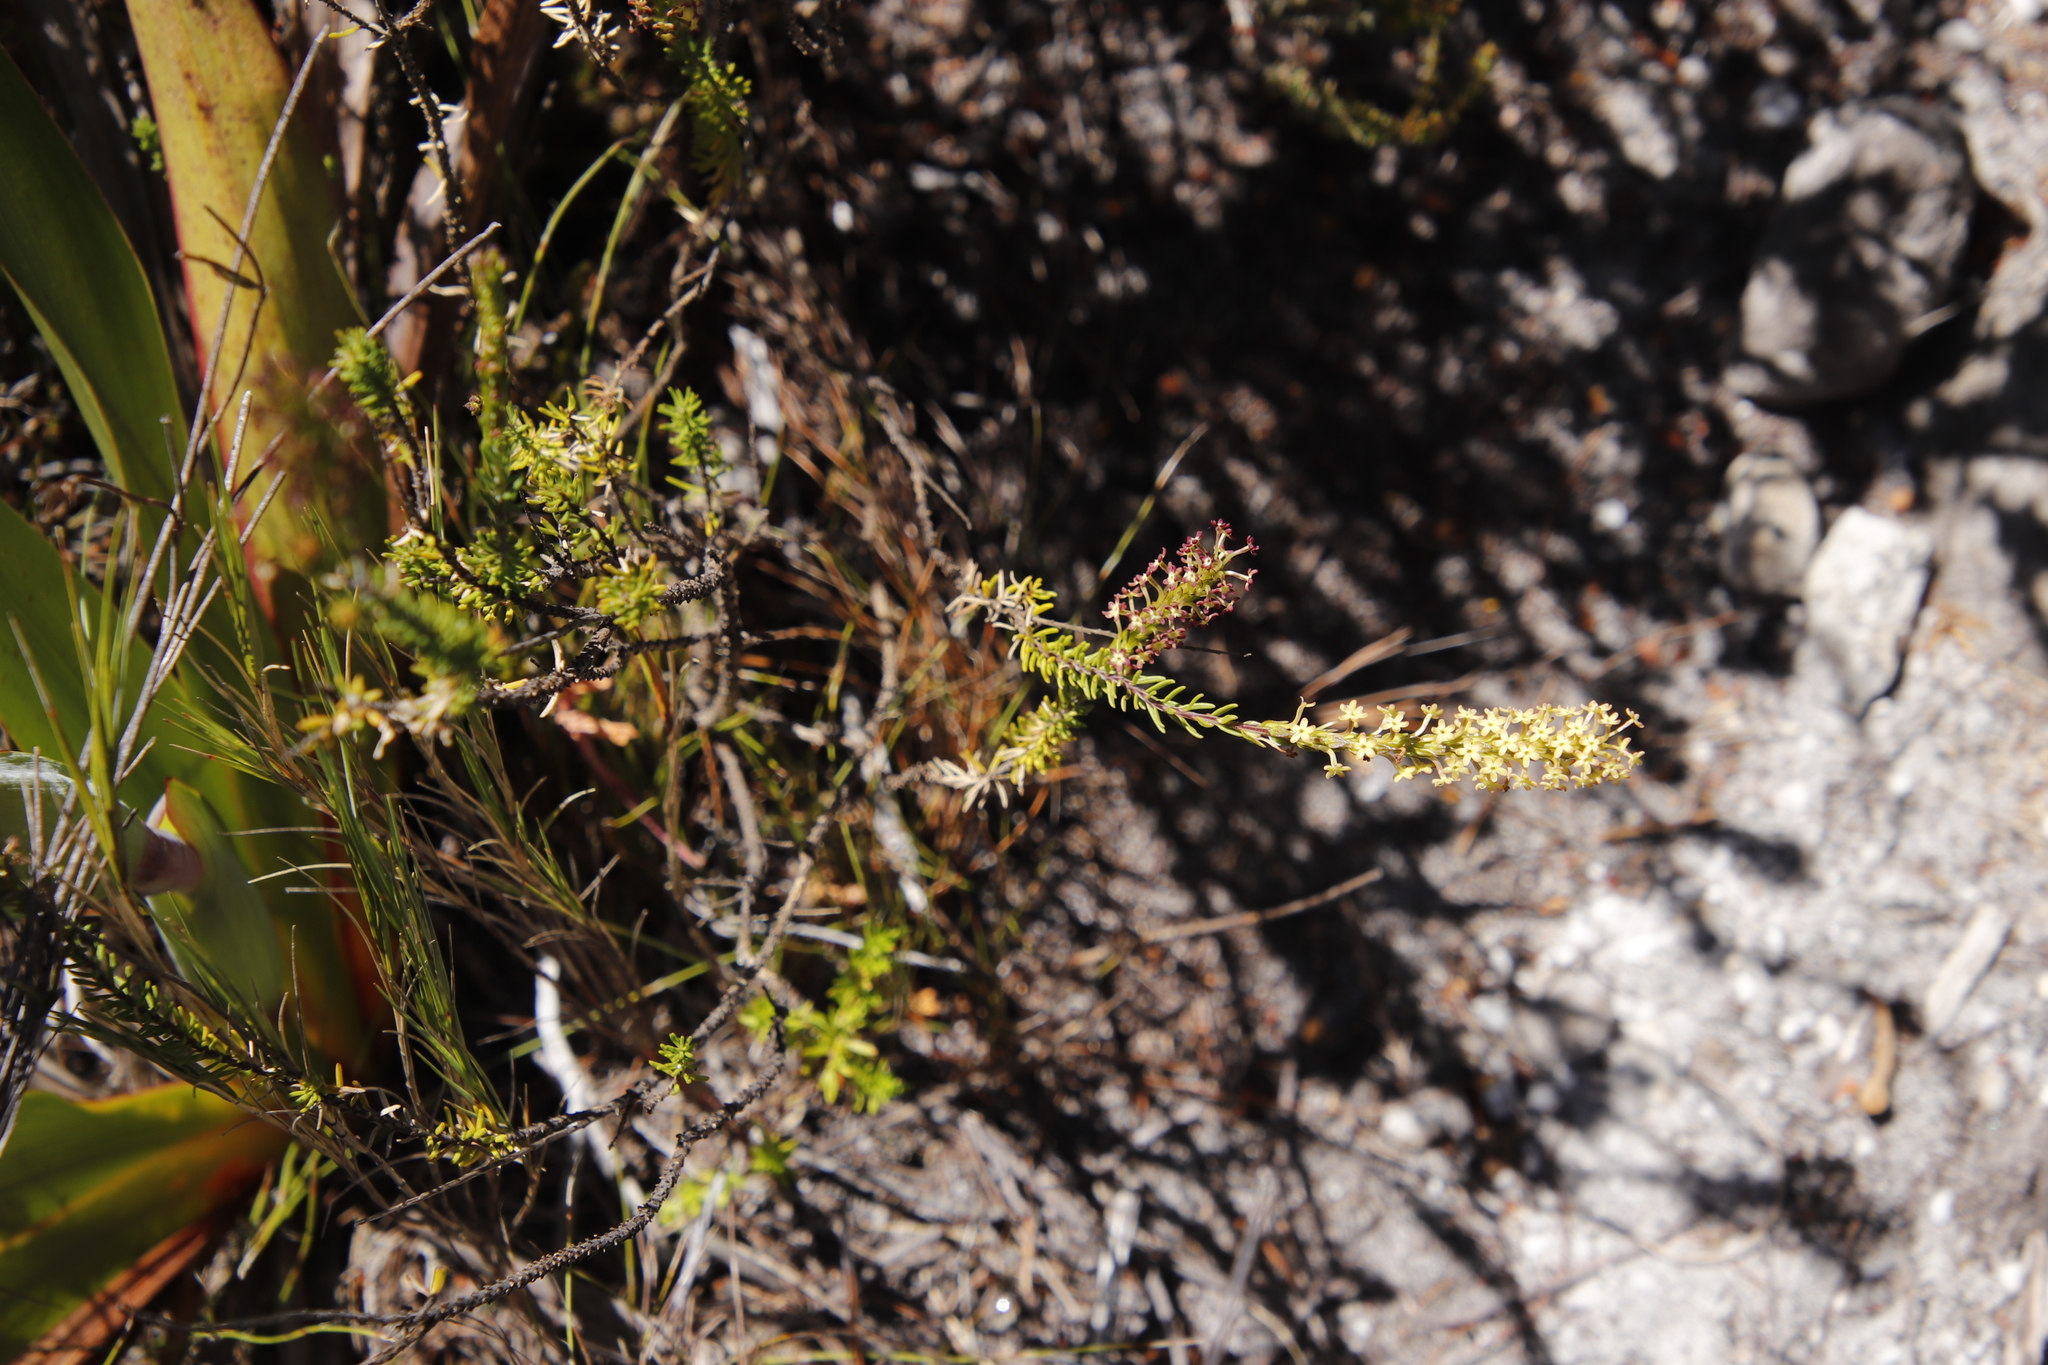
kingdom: Plantae
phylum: Tracheophyta
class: Magnoliopsida
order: Lamiales
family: Scrophulariaceae
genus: Microdon
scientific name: Microdon dubius
